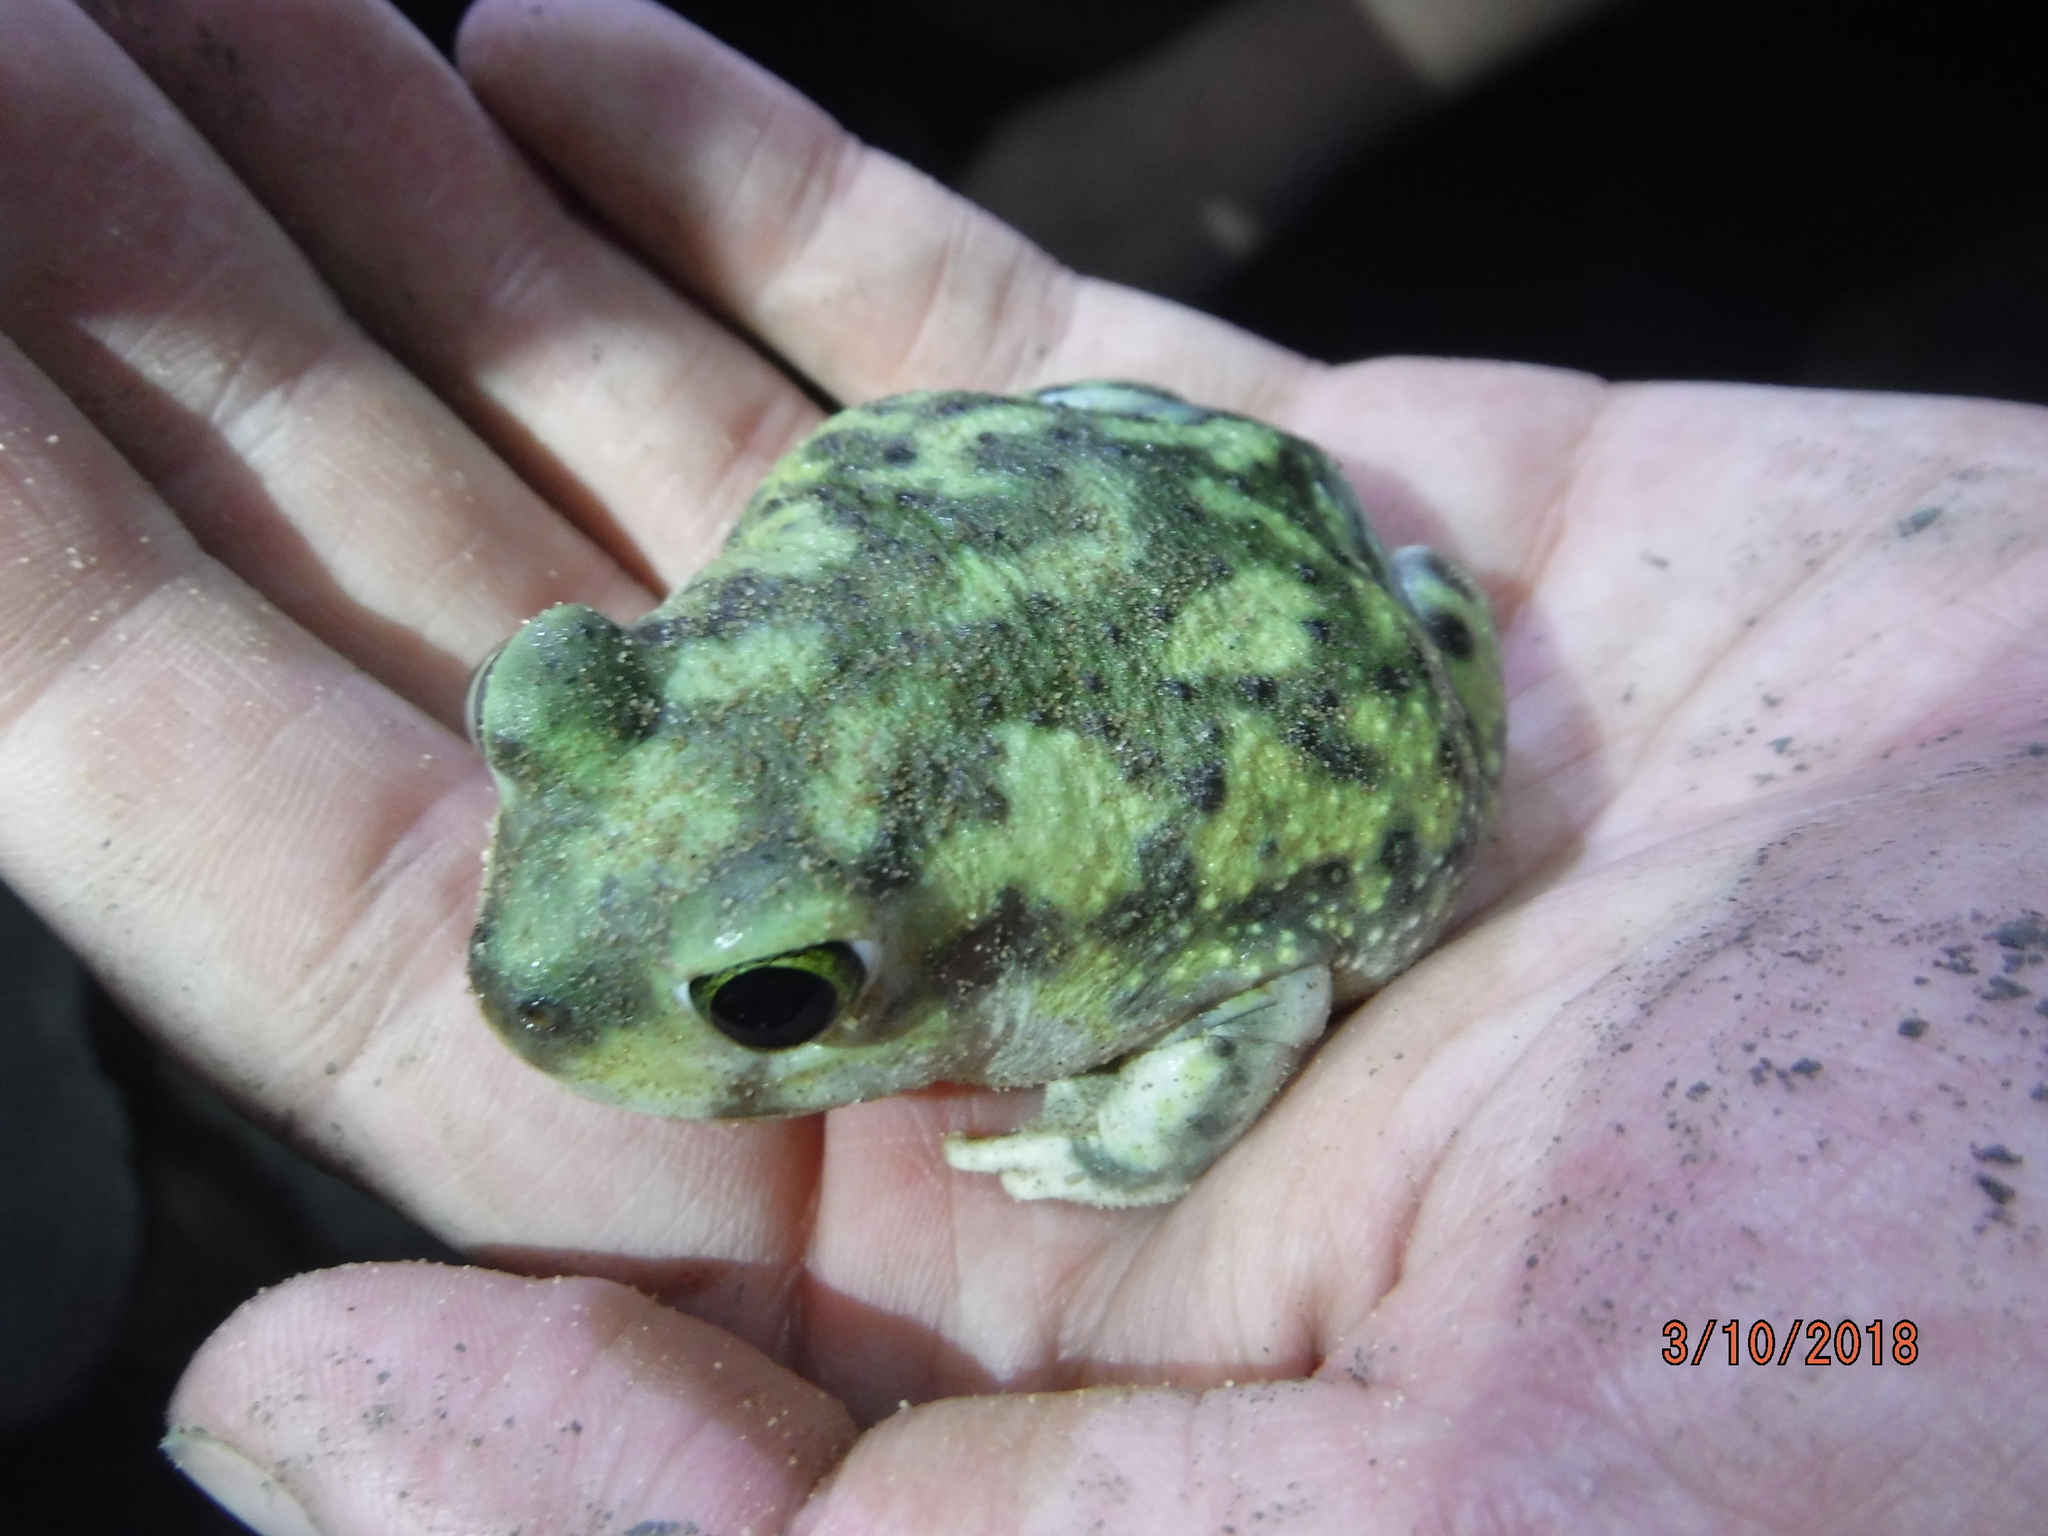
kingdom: Animalia
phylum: Chordata
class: Amphibia
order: Anura
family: Scaphiopodidae
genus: Scaphiopus
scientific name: Scaphiopus couchii
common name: Couch's spadefoot toad
